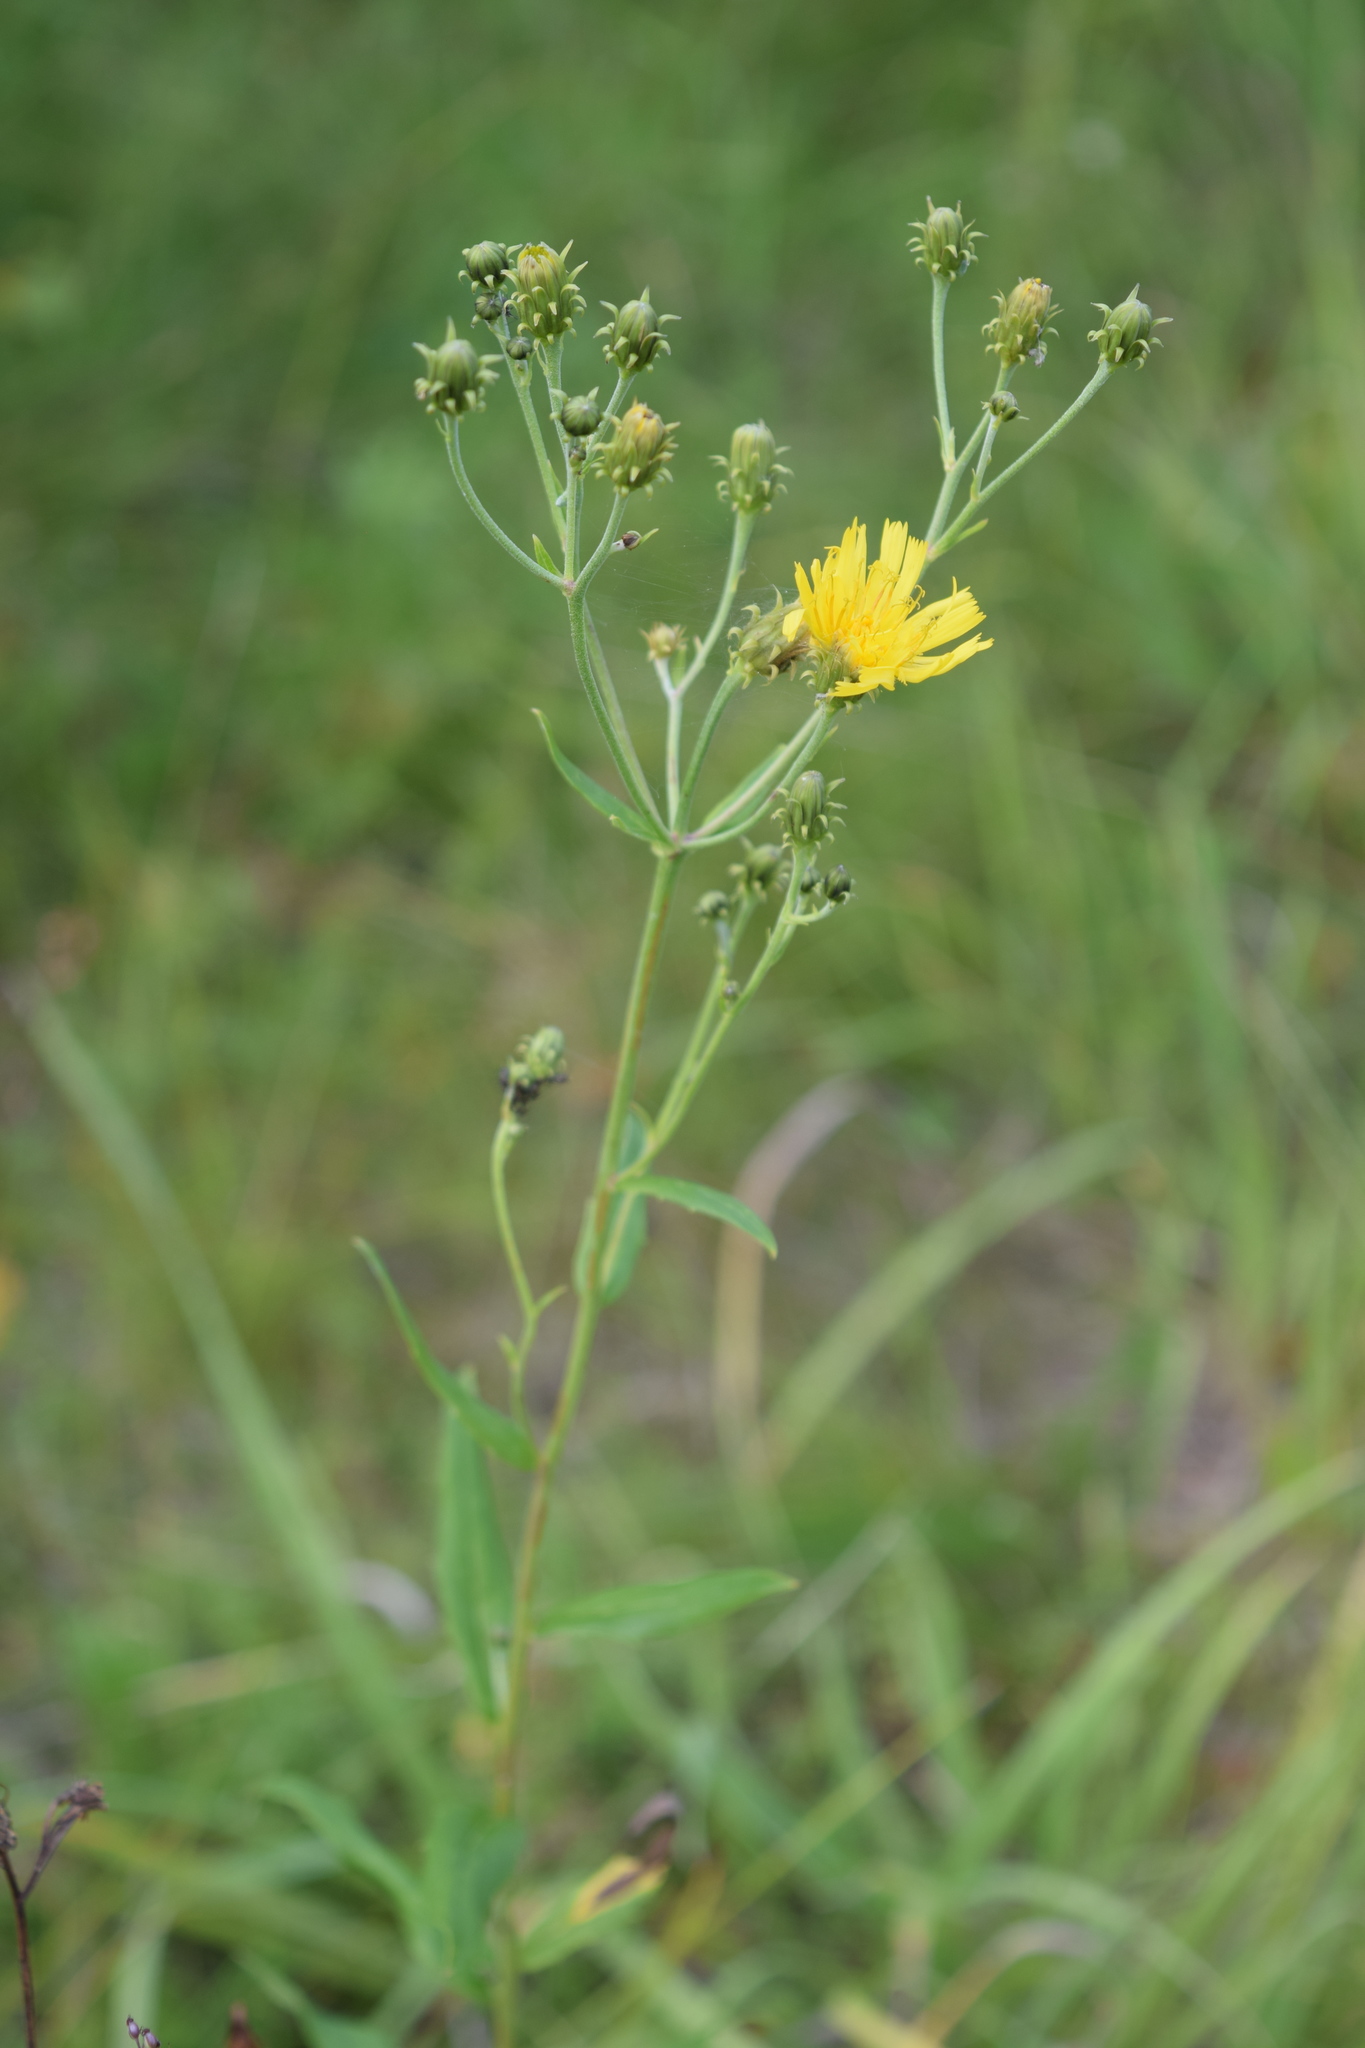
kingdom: Plantae
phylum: Tracheophyta
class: Magnoliopsida
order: Asterales
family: Asteraceae
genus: Hieracium
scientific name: Hieracium umbellatum
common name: Northern hawkweed
